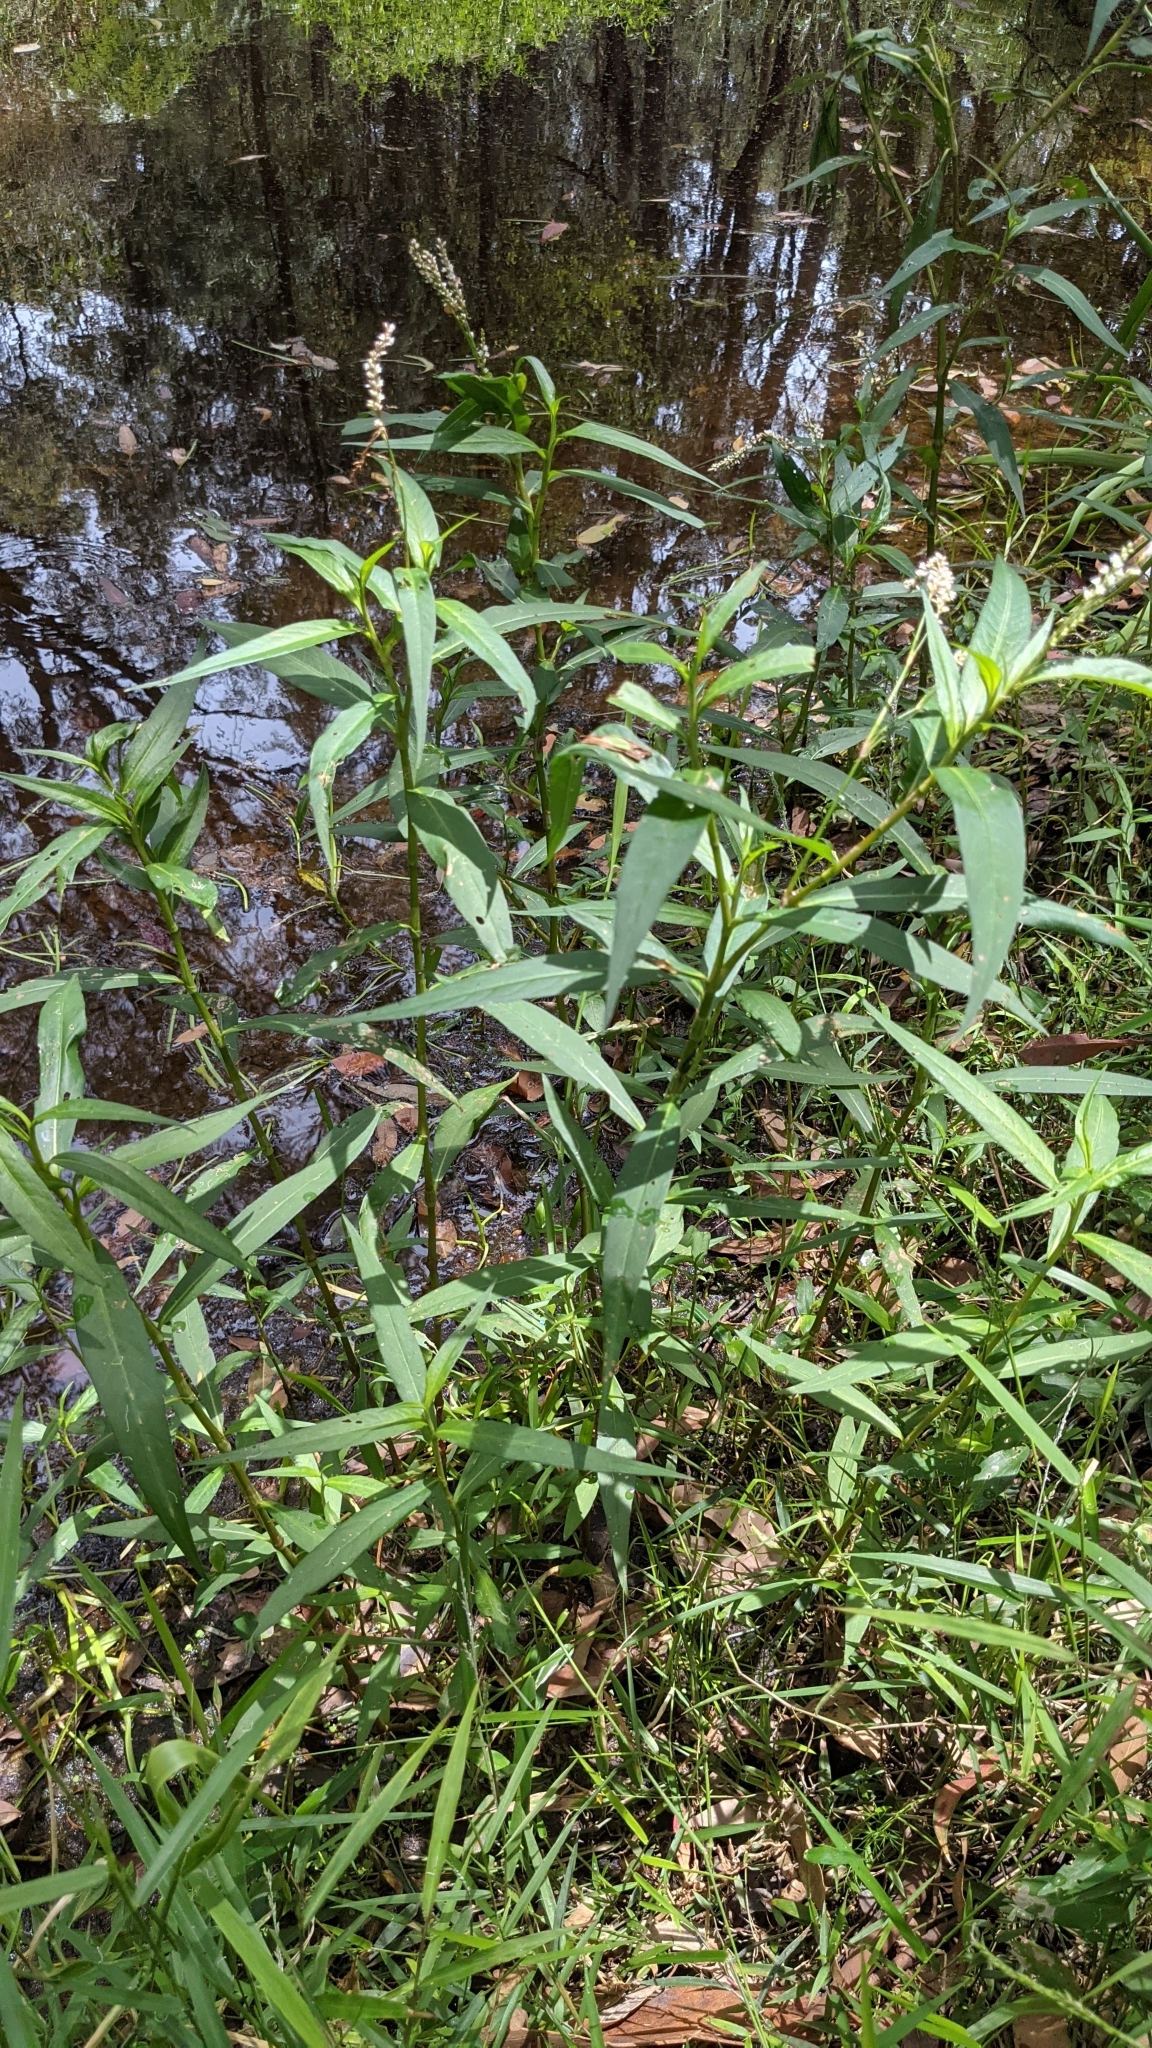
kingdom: Plantae
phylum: Tracheophyta
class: Magnoliopsida
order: Caryophyllales
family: Polygonaceae
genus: Persicaria
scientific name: Persicaria decipiens
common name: Willow-weed
